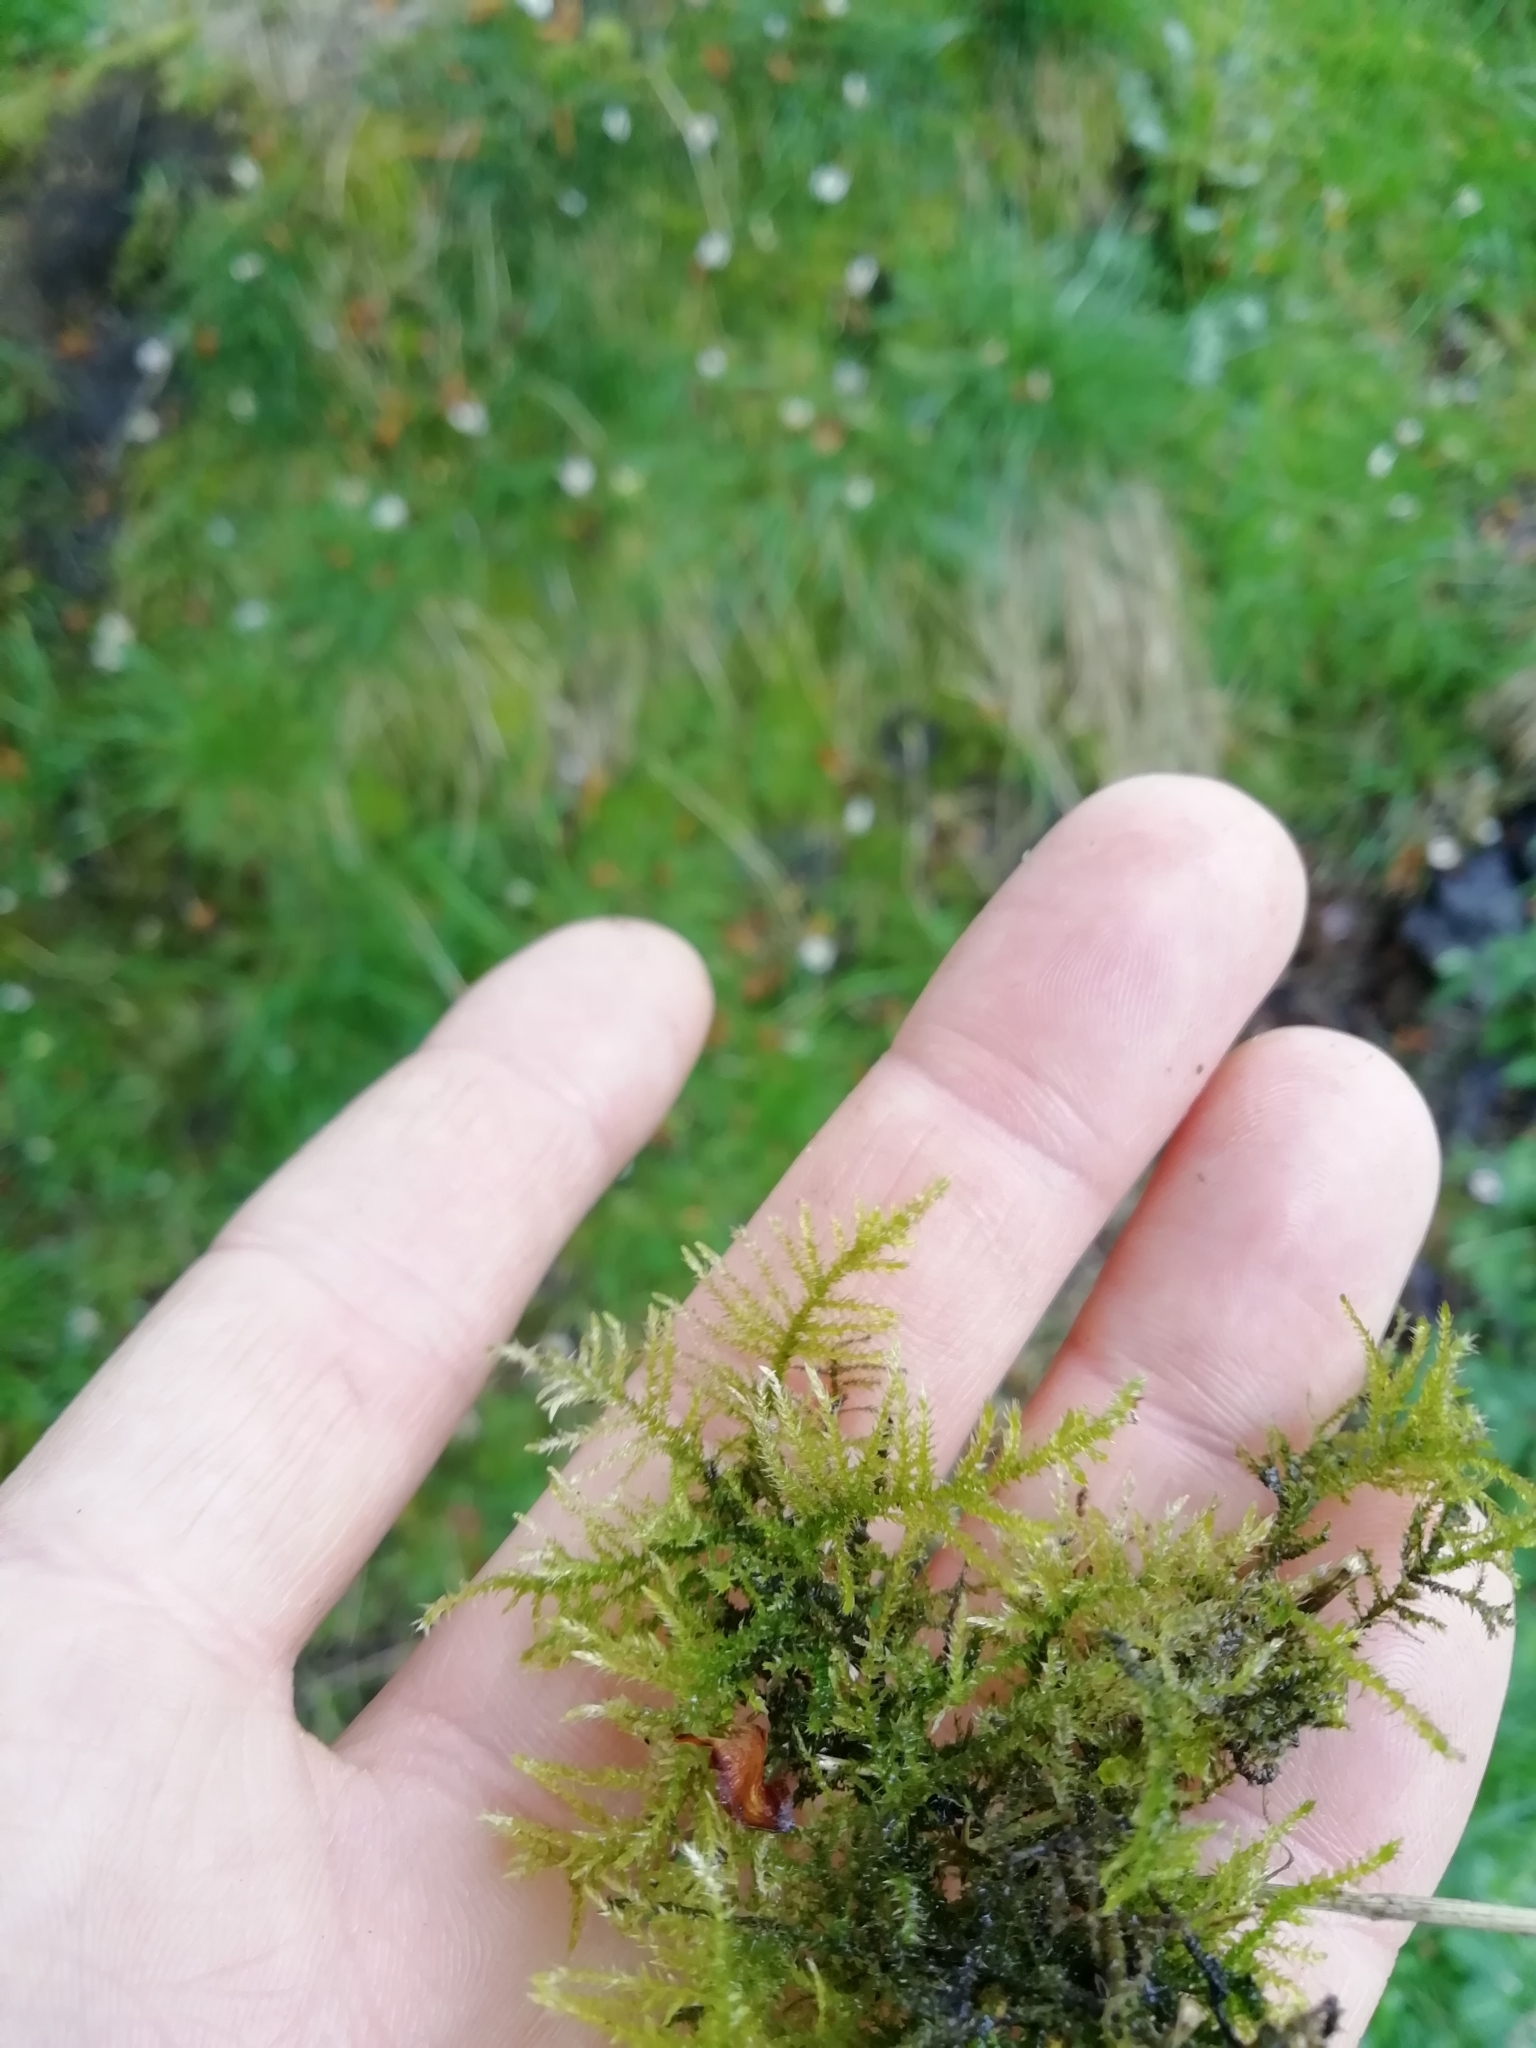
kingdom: Plantae
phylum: Bryophyta
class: Bryopsida
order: Hypnales
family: Brachytheciaceae
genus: Kindbergia
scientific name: Kindbergia praelonga
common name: Slender beaked moss
